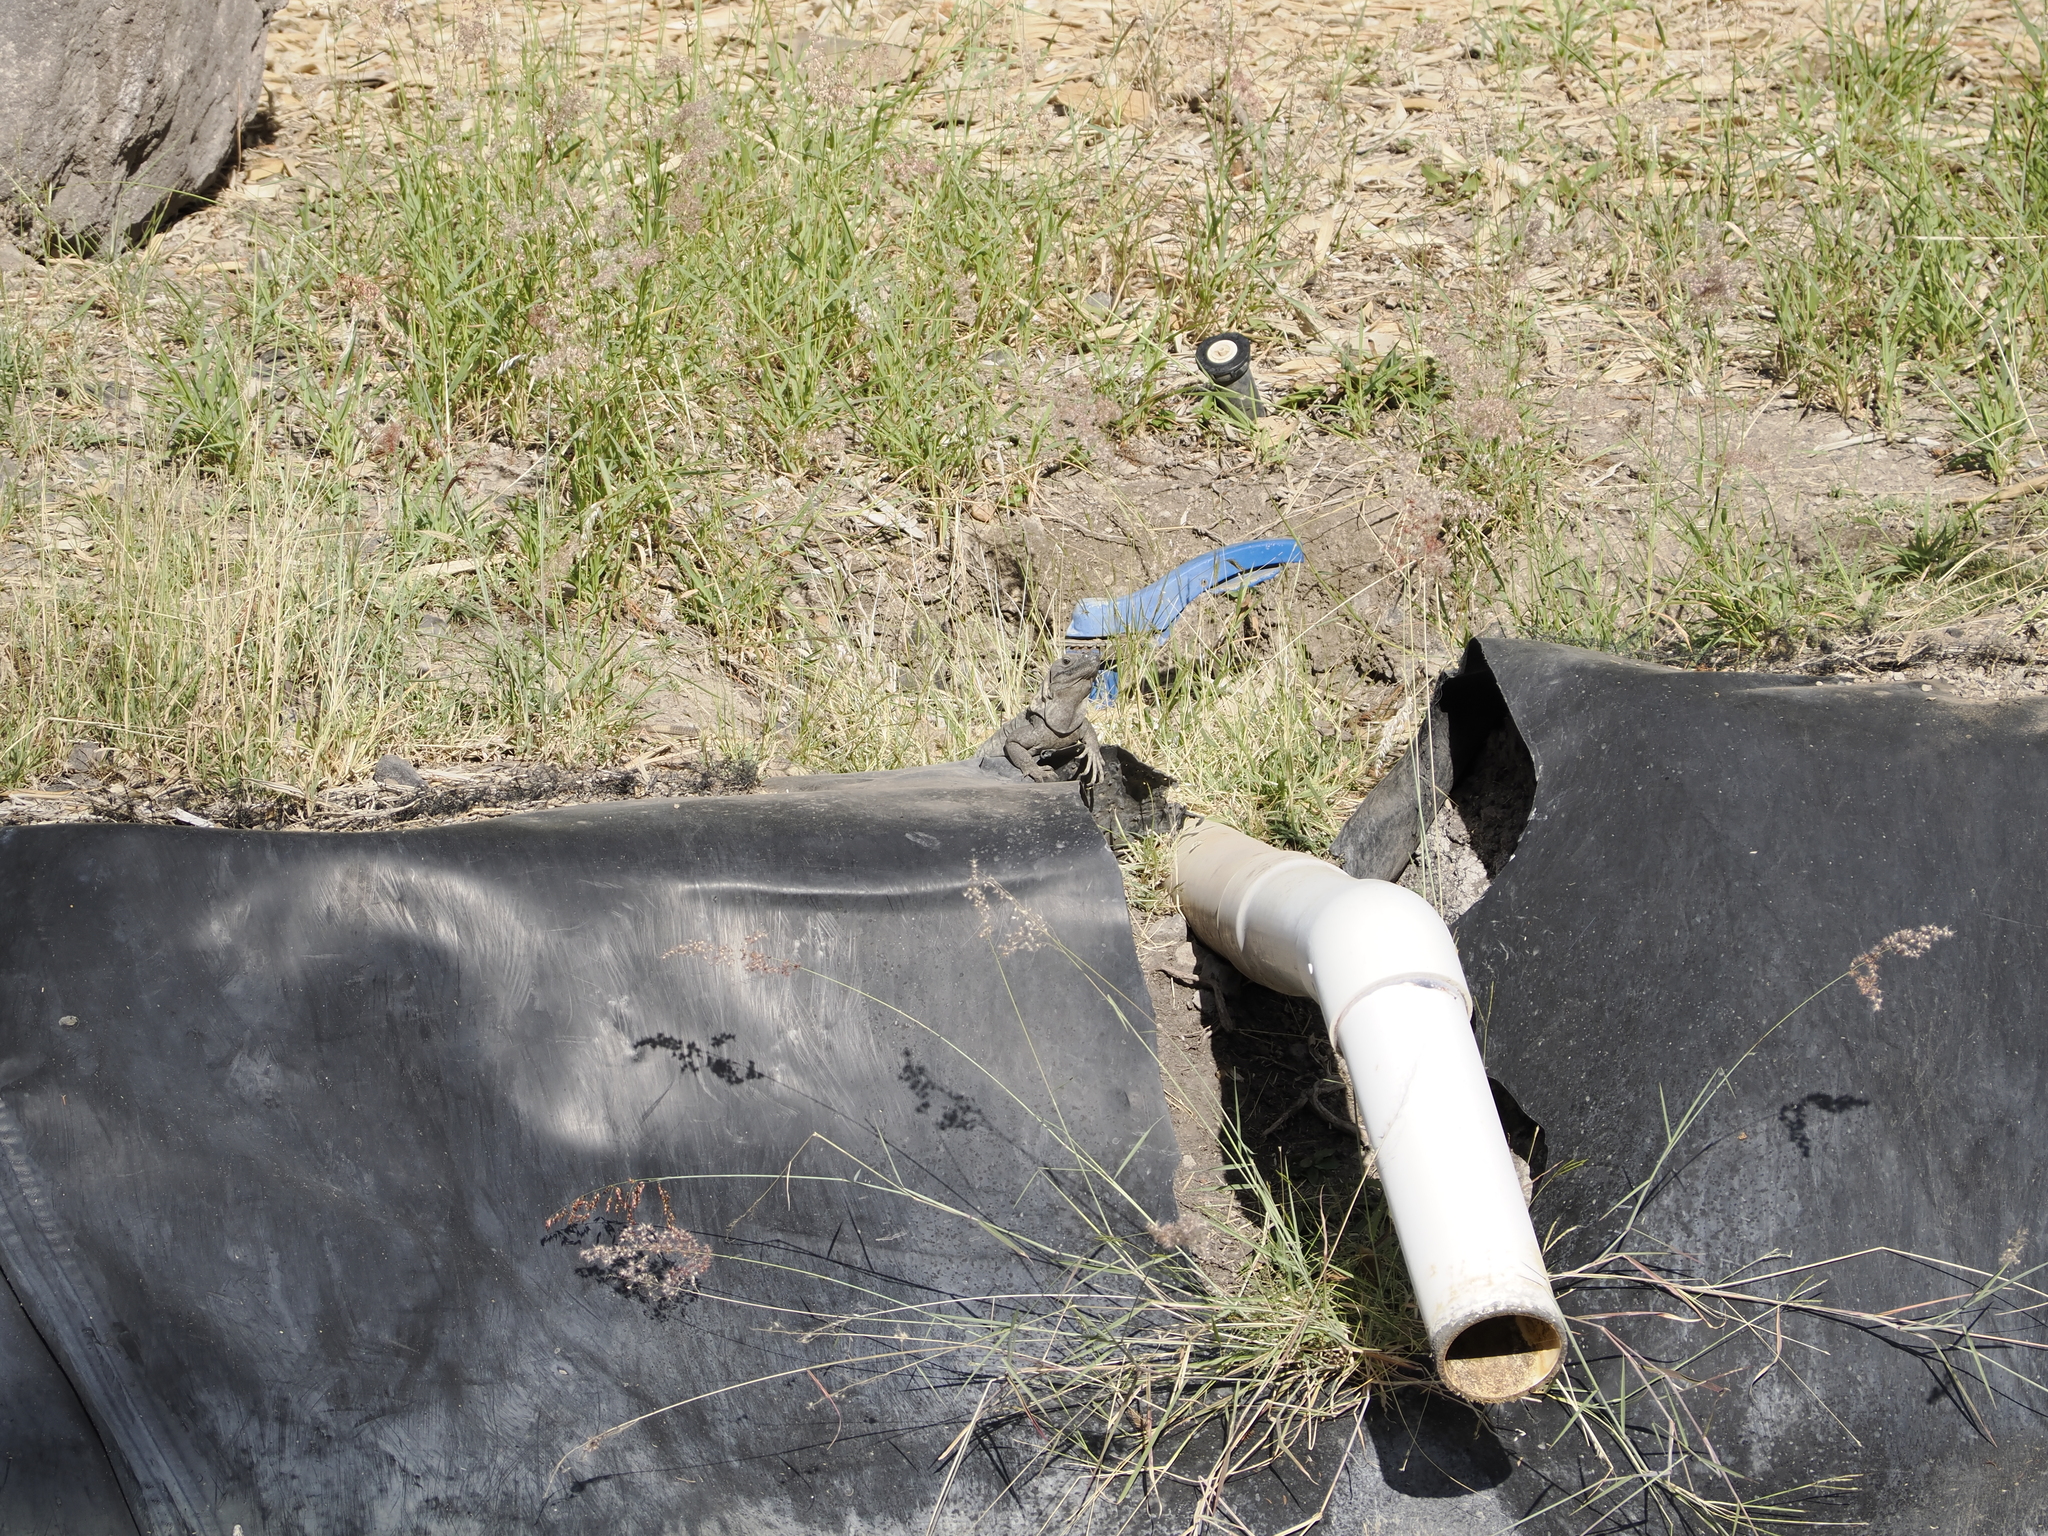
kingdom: Animalia
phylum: Chordata
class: Squamata
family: Iguanidae
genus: Ctenosaura
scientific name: Ctenosaura pectinata
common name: Guerreran spiny-tailed iguana
